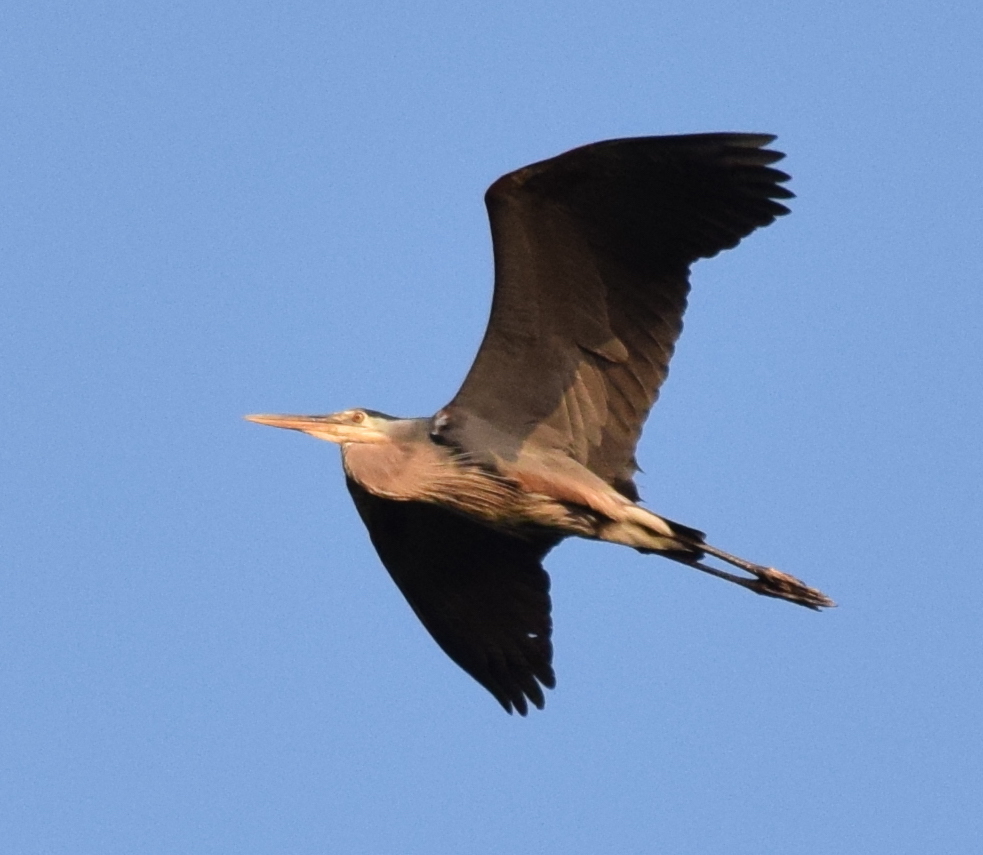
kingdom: Animalia
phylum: Chordata
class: Aves
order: Pelecaniformes
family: Ardeidae
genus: Ardea
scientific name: Ardea herodias
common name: Great blue heron
